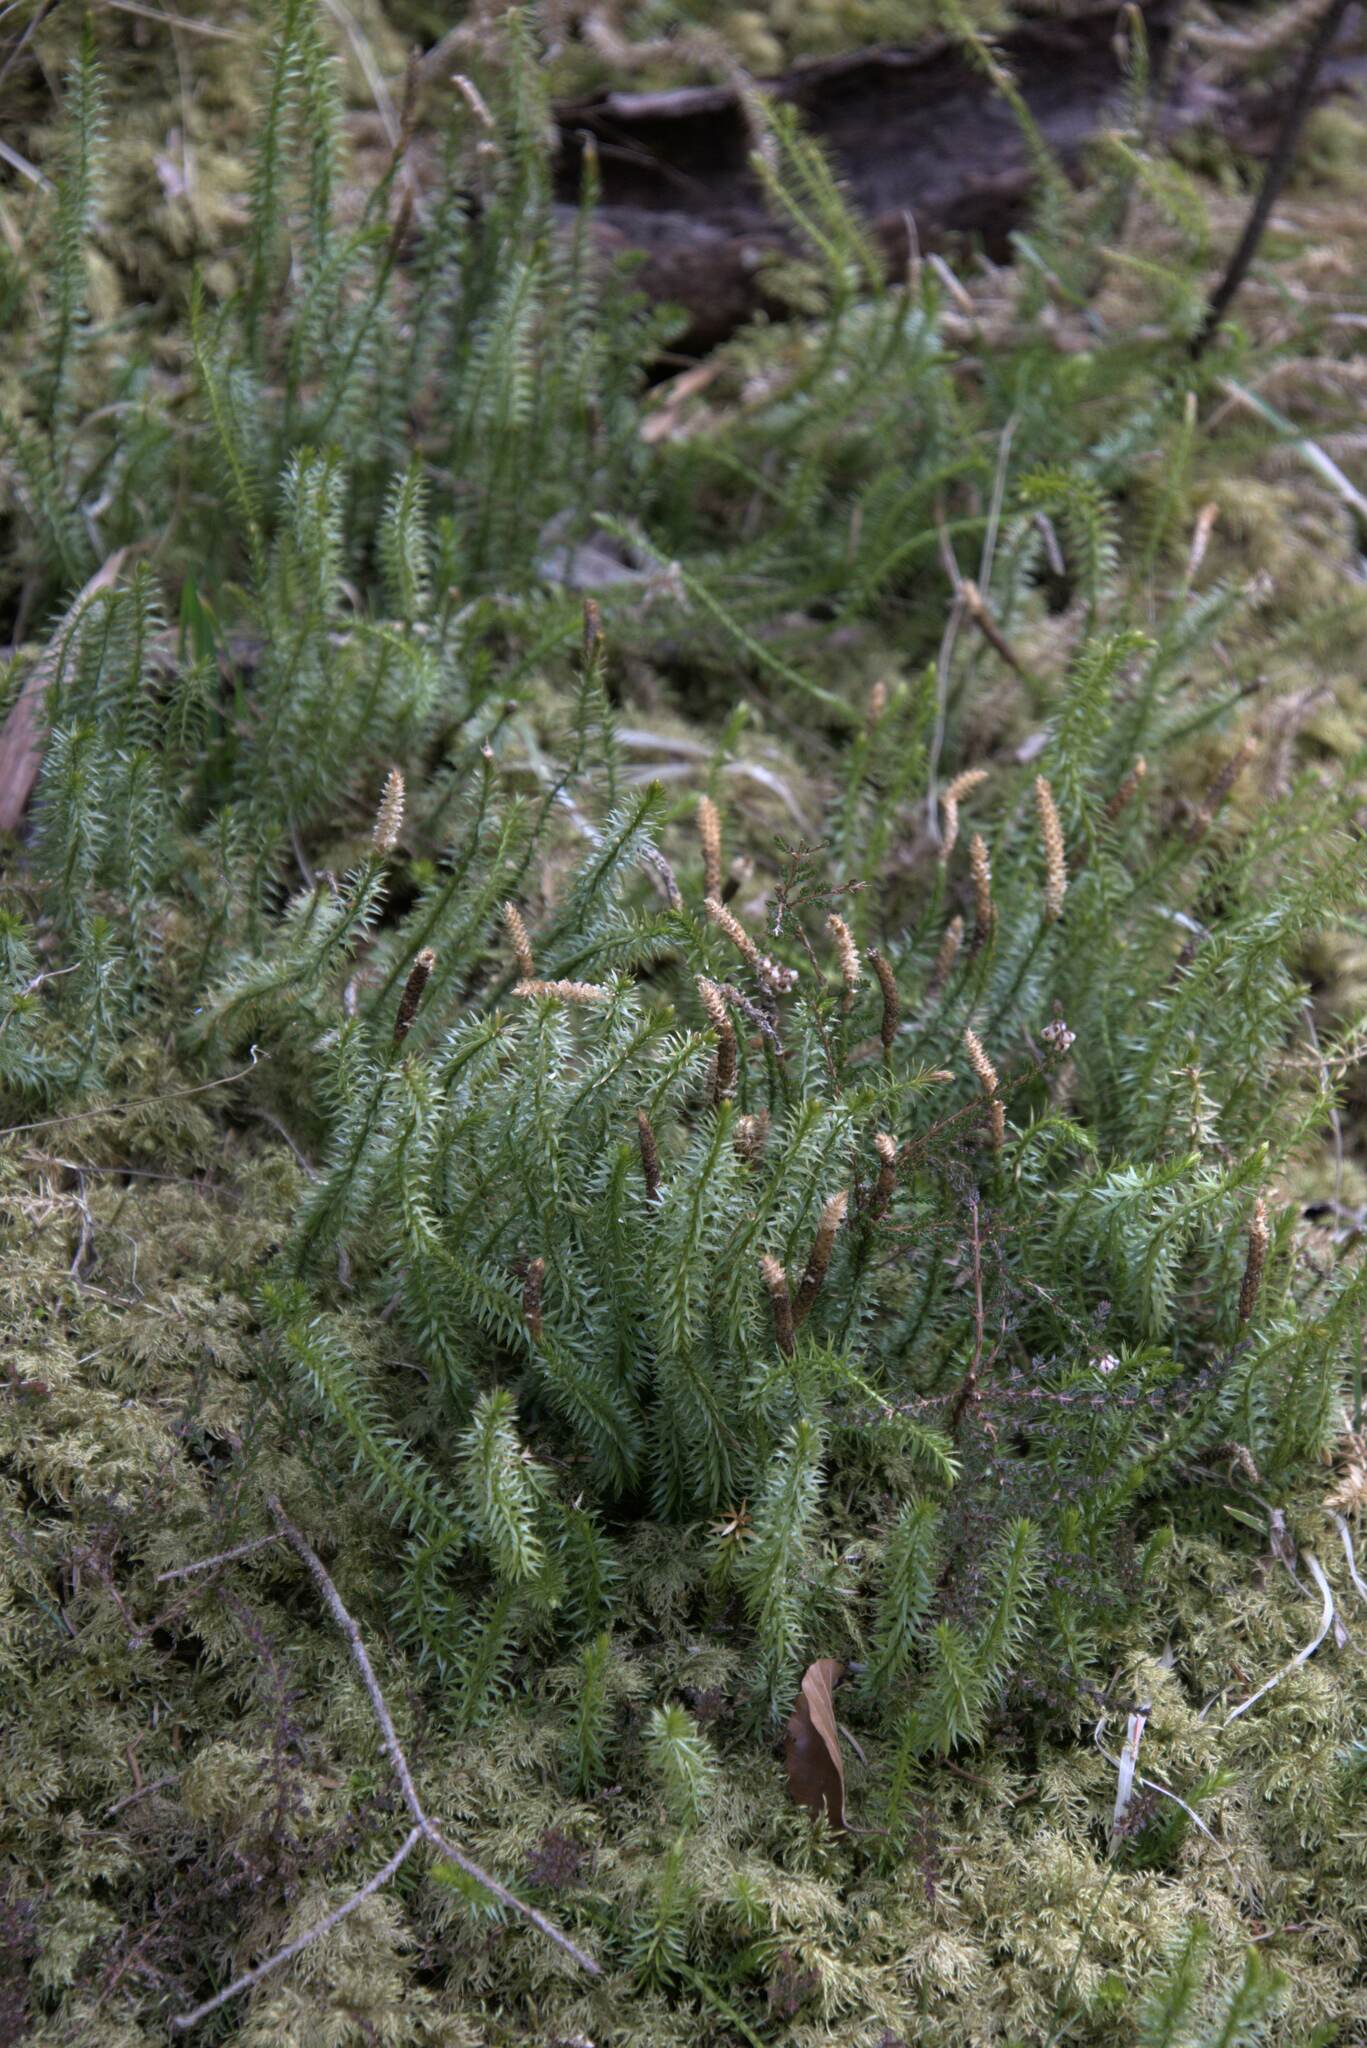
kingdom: Plantae
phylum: Tracheophyta
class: Lycopodiopsida
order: Lycopodiales
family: Lycopodiaceae
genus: Spinulum
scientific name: Spinulum annotinum
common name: Interrupted club-moss
